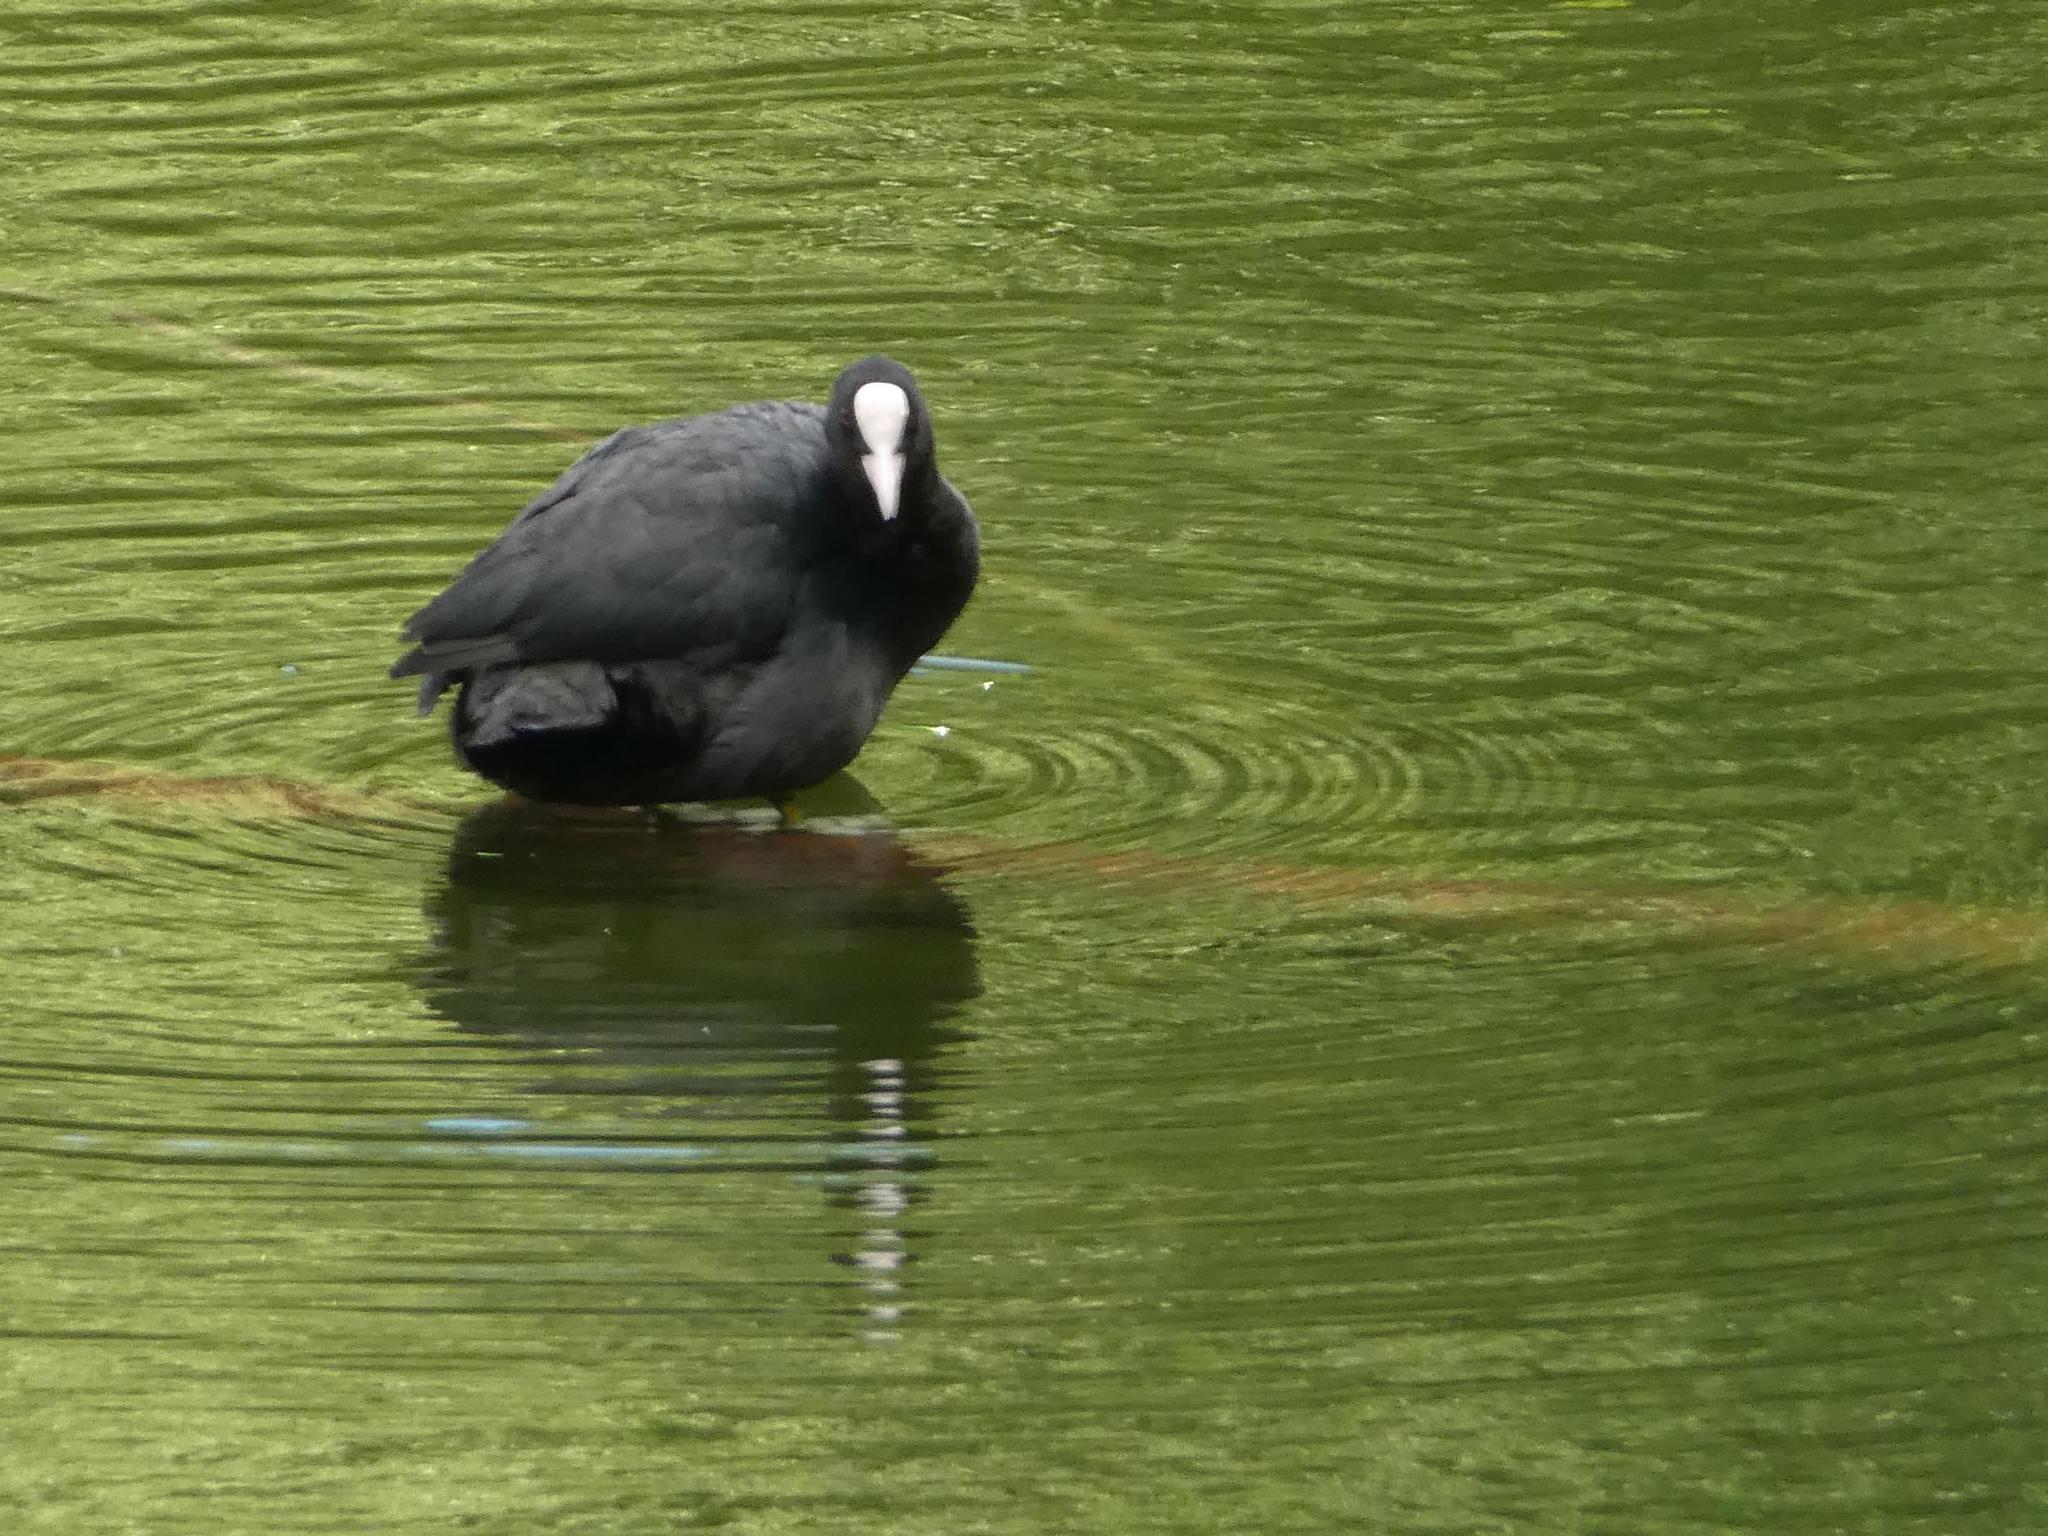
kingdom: Animalia
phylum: Chordata
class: Aves
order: Gruiformes
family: Rallidae
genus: Fulica
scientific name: Fulica atra
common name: Eurasian coot
